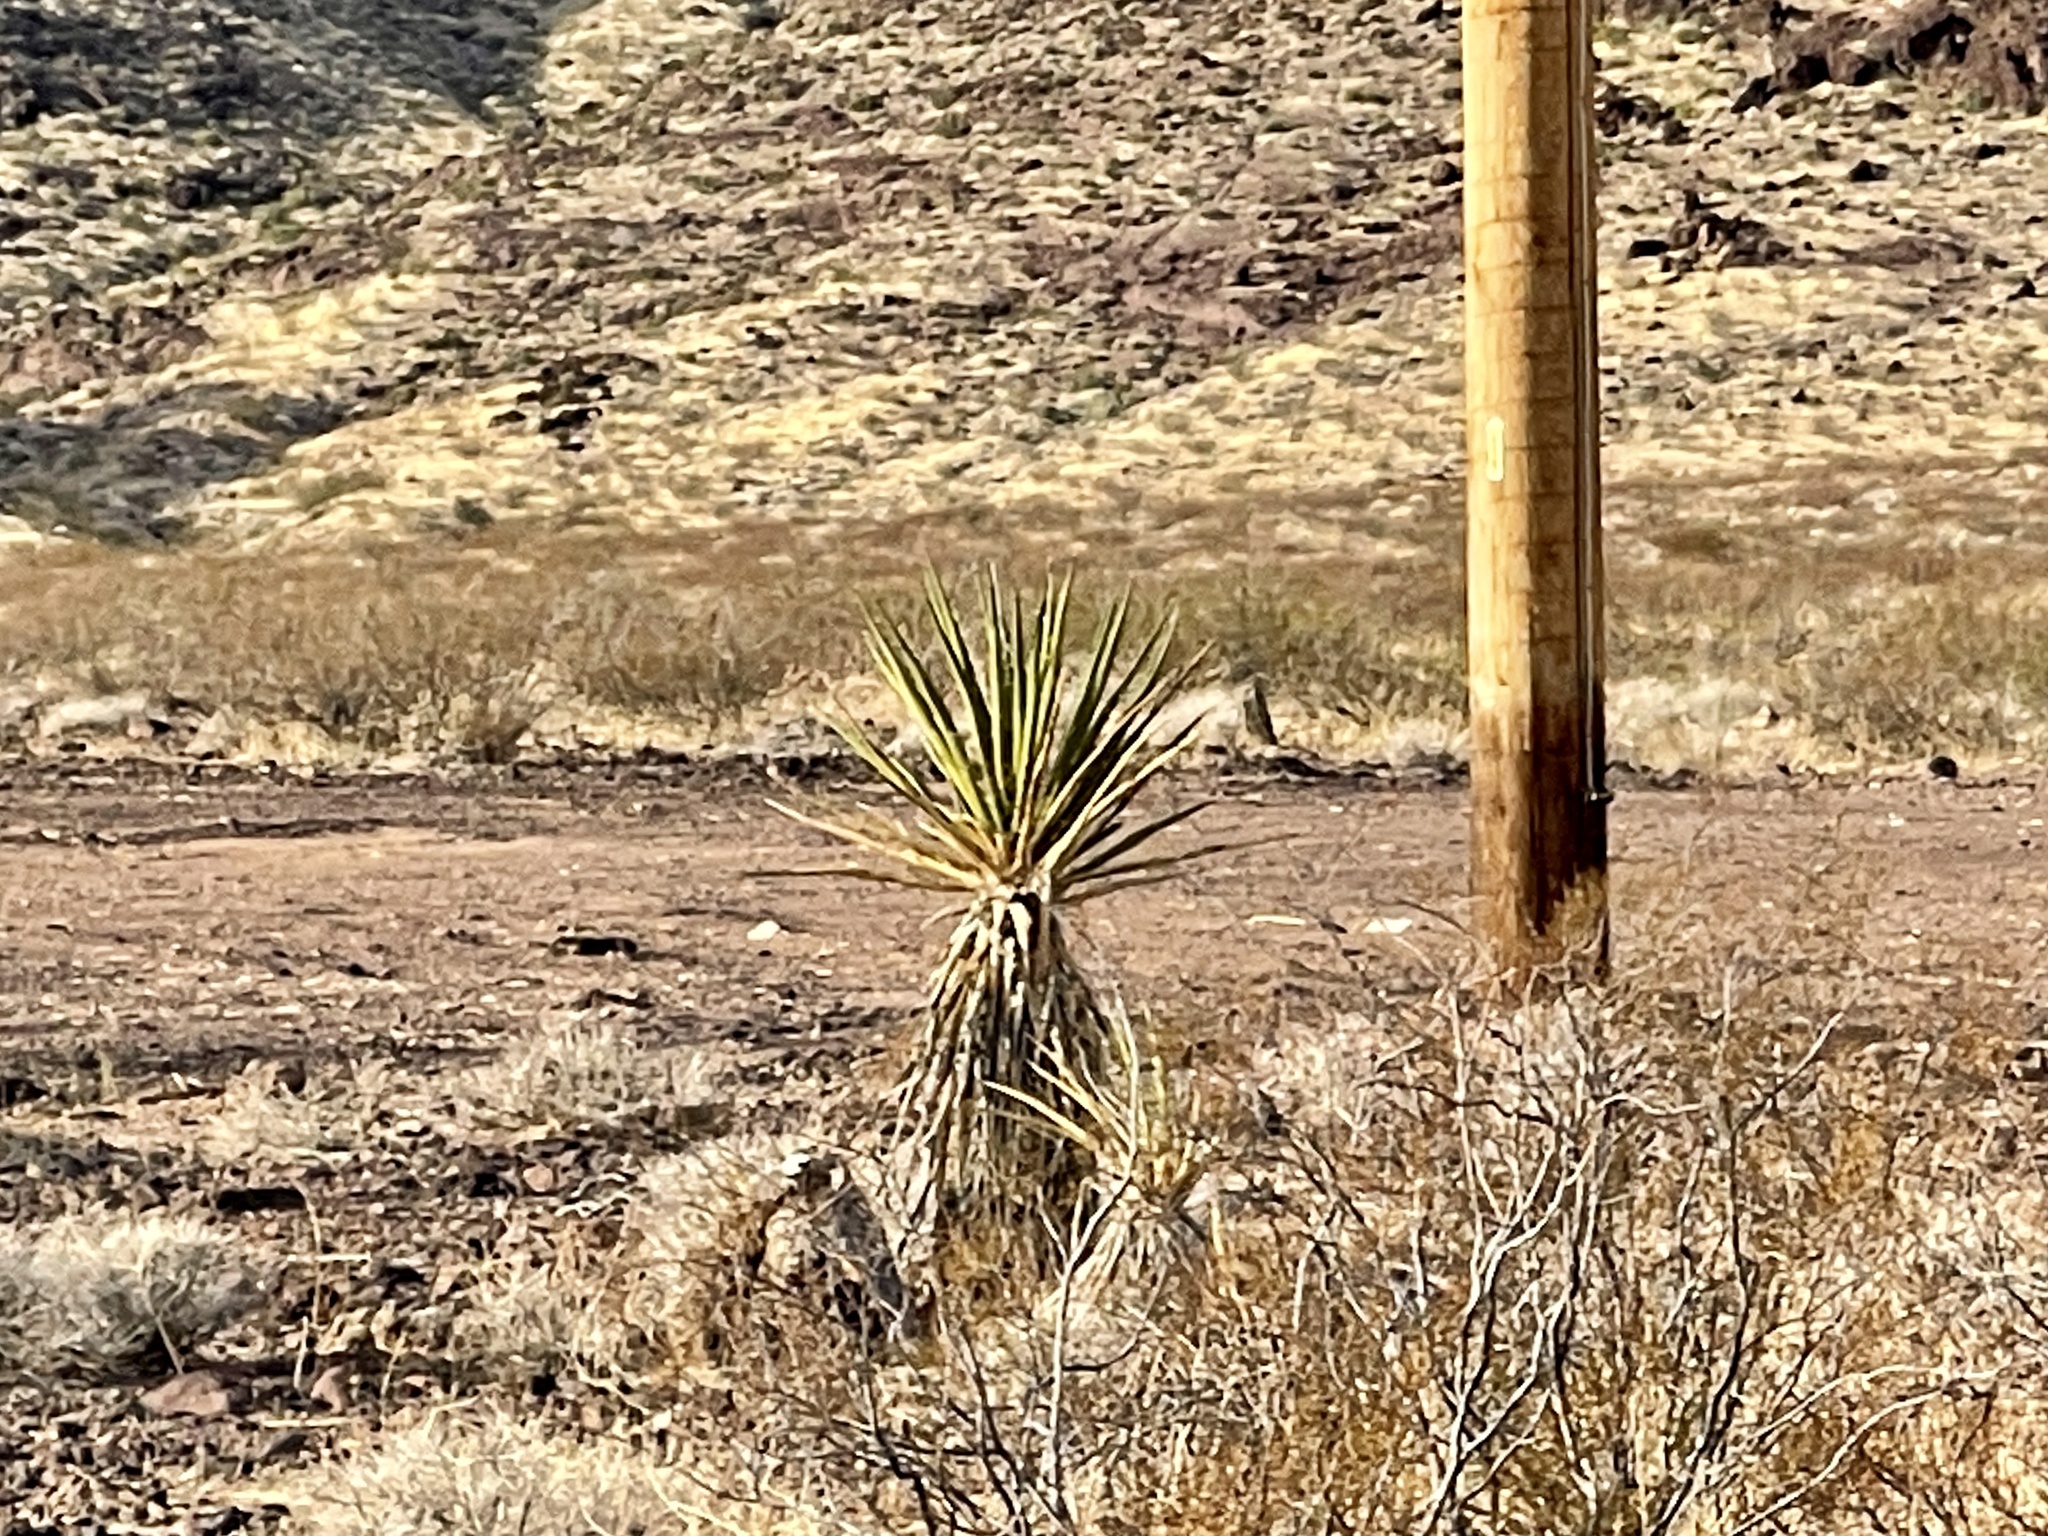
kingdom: Plantae
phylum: Tracheophyta
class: Liliopsida
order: Asparagales
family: Asparagaceae
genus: Yucca
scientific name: Yucca schidigera
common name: Mojave yucca
